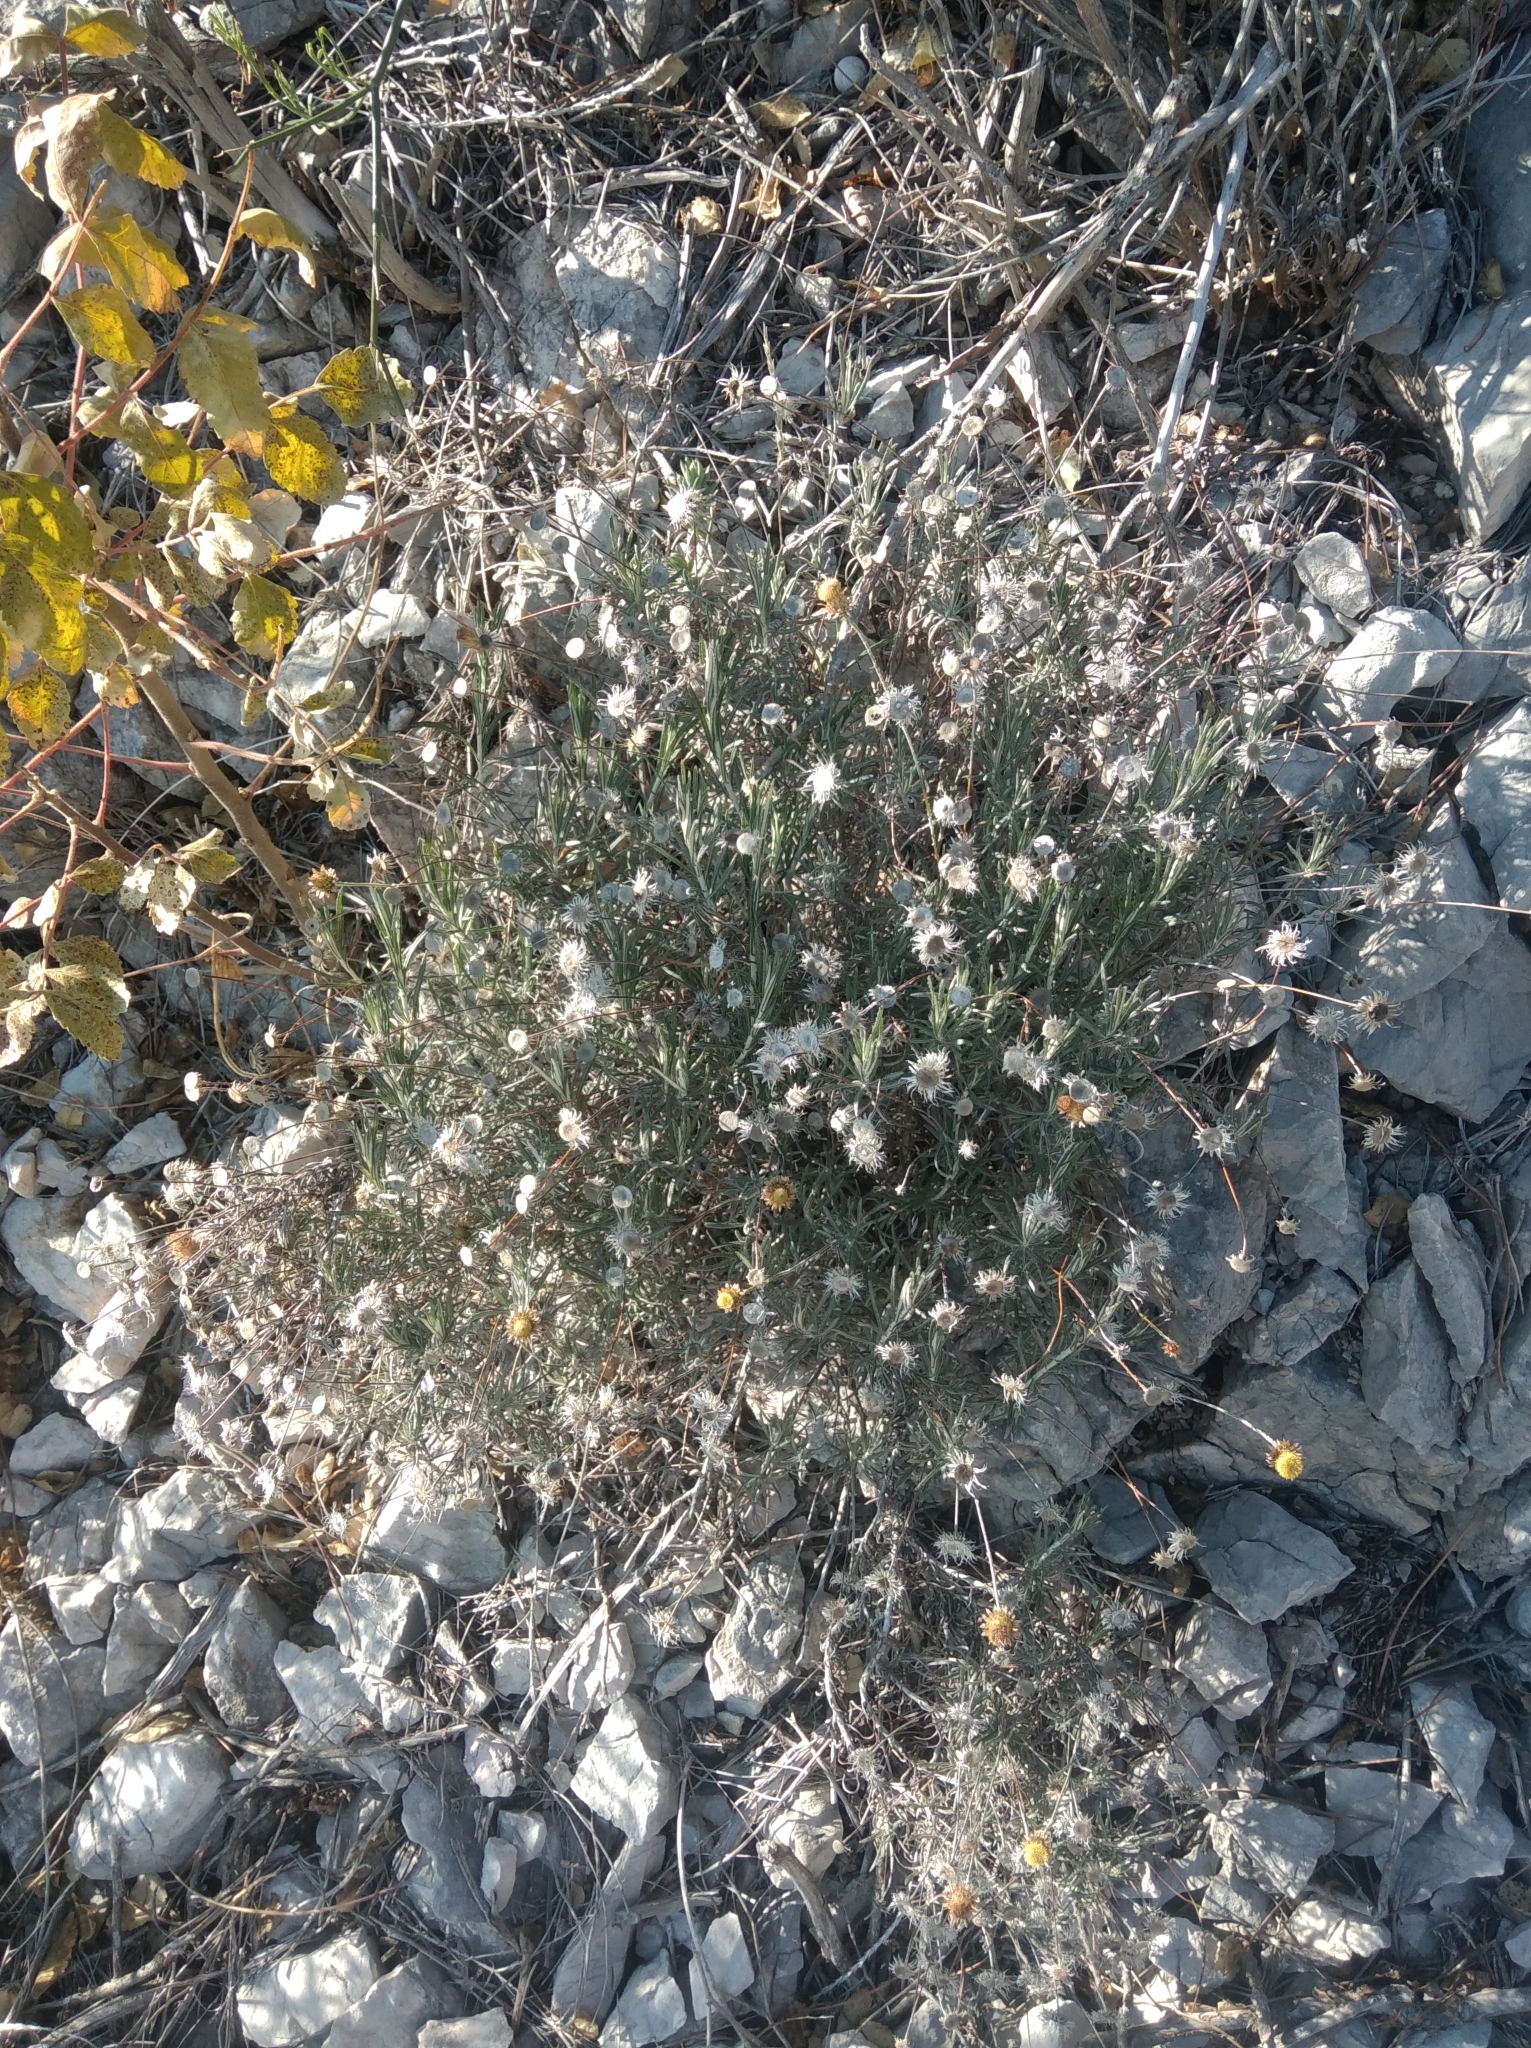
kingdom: Plantae
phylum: Tracheophyta
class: Magnoliopsida
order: Asterales
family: Asteraceae
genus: Phagnalon
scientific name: Phagnalon saxatile
